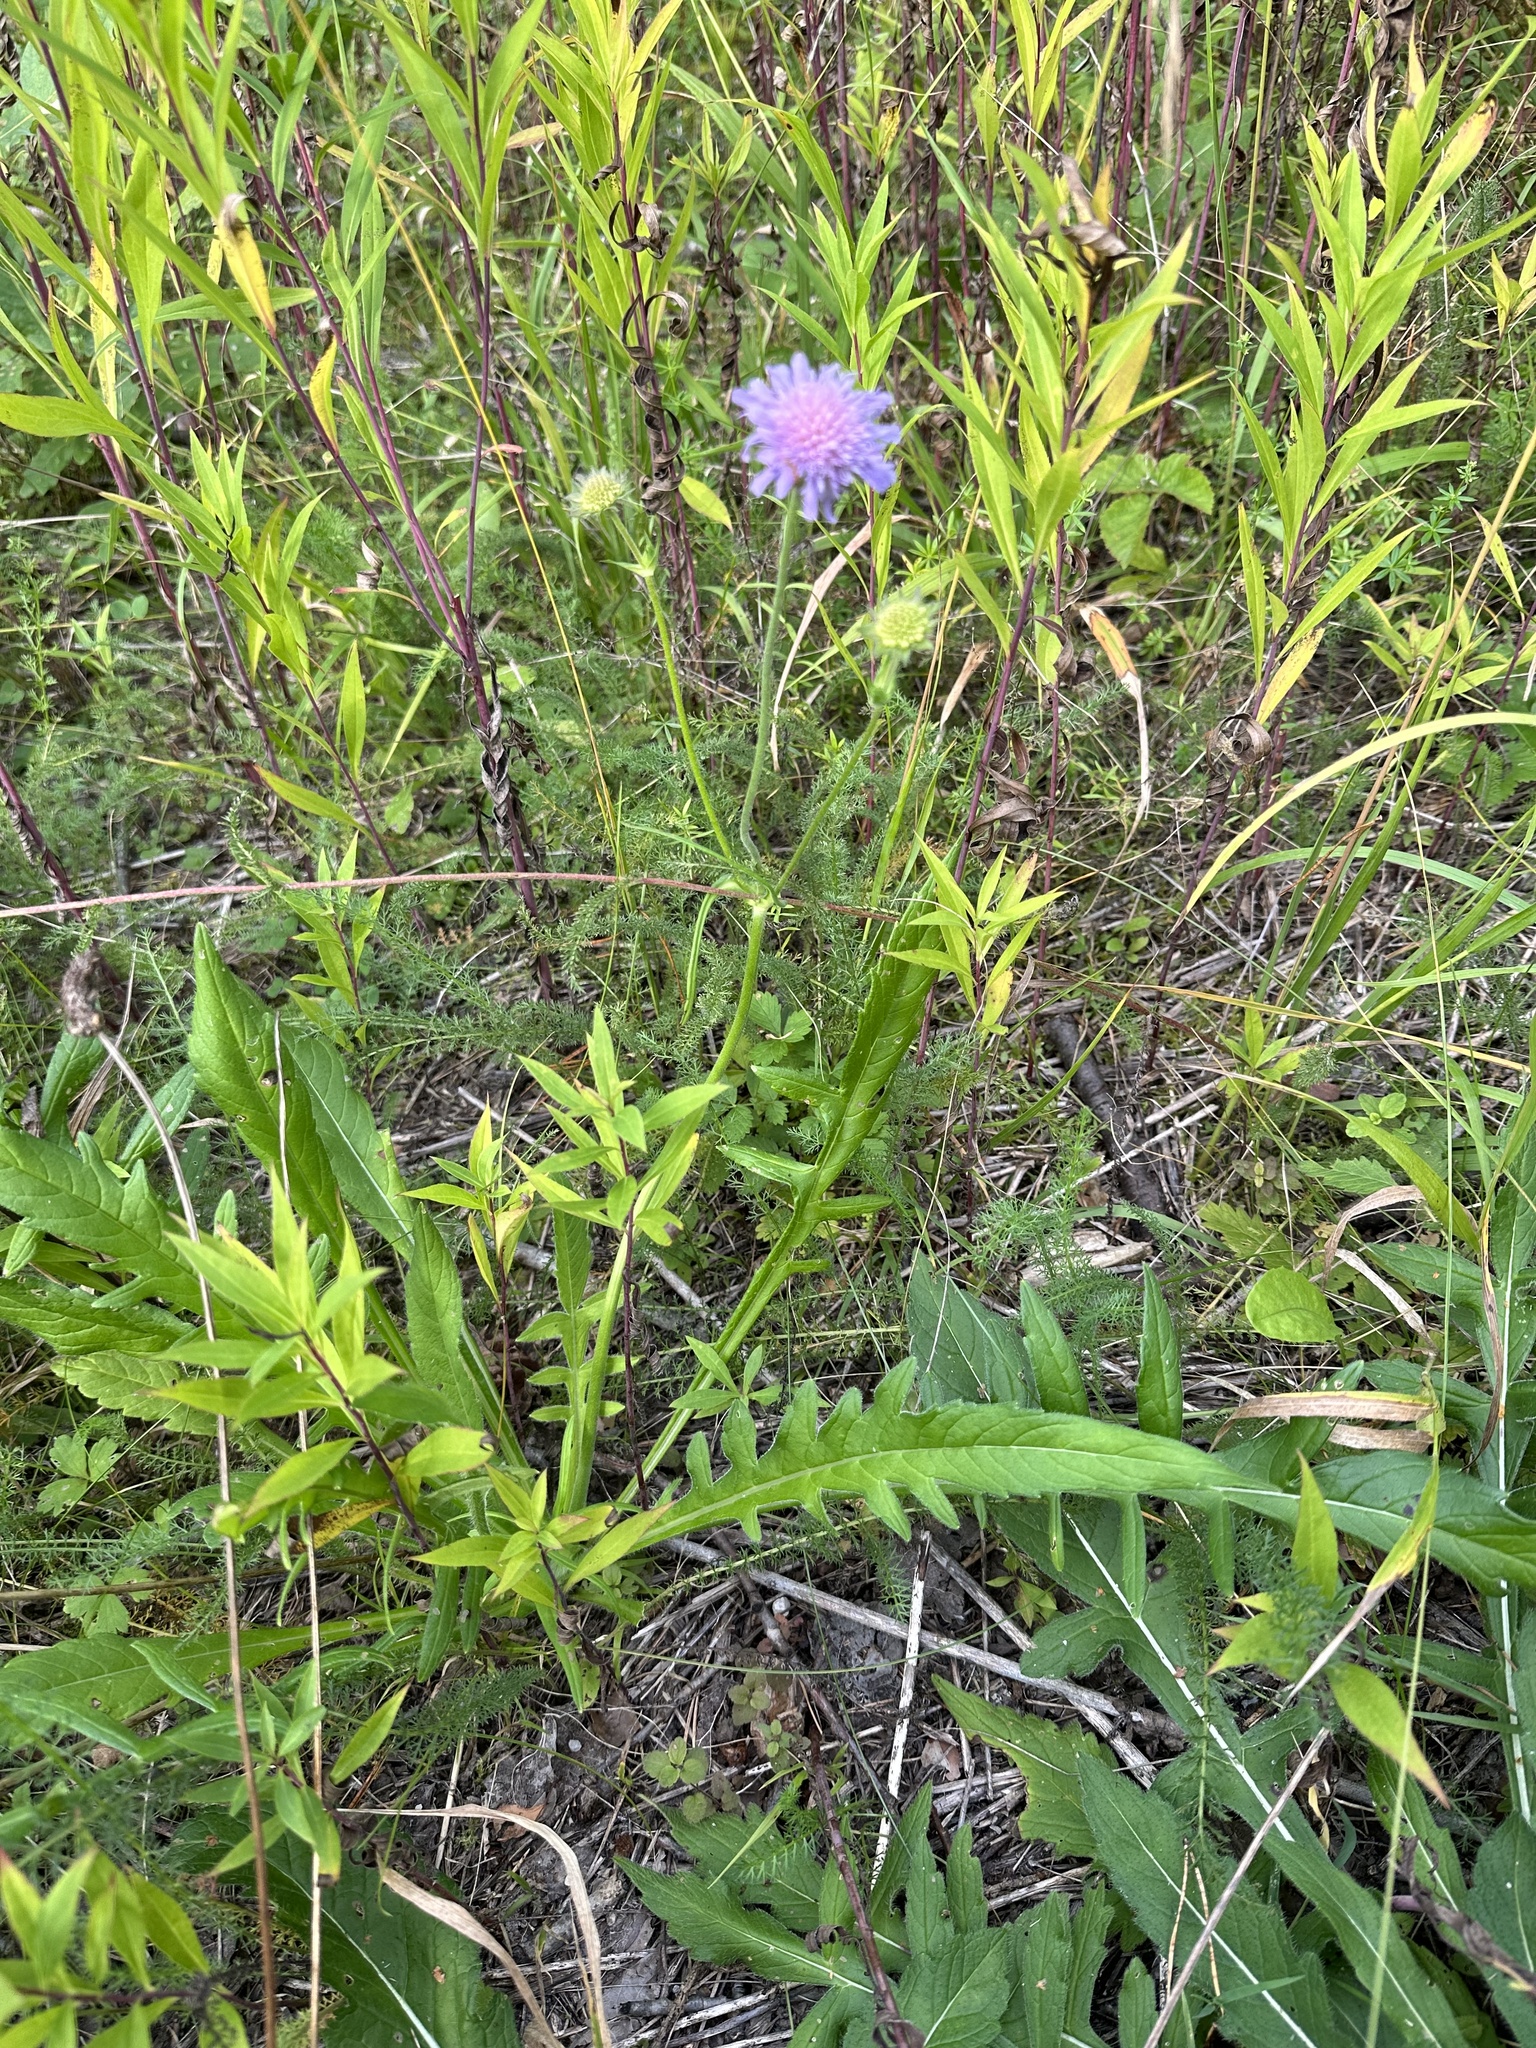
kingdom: Plantae
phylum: Tracheophyta
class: Magnoliopsida
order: Dipsacales
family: Caprifoliaceae
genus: Knautia
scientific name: Knautia arvensis
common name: Field scabiosa
